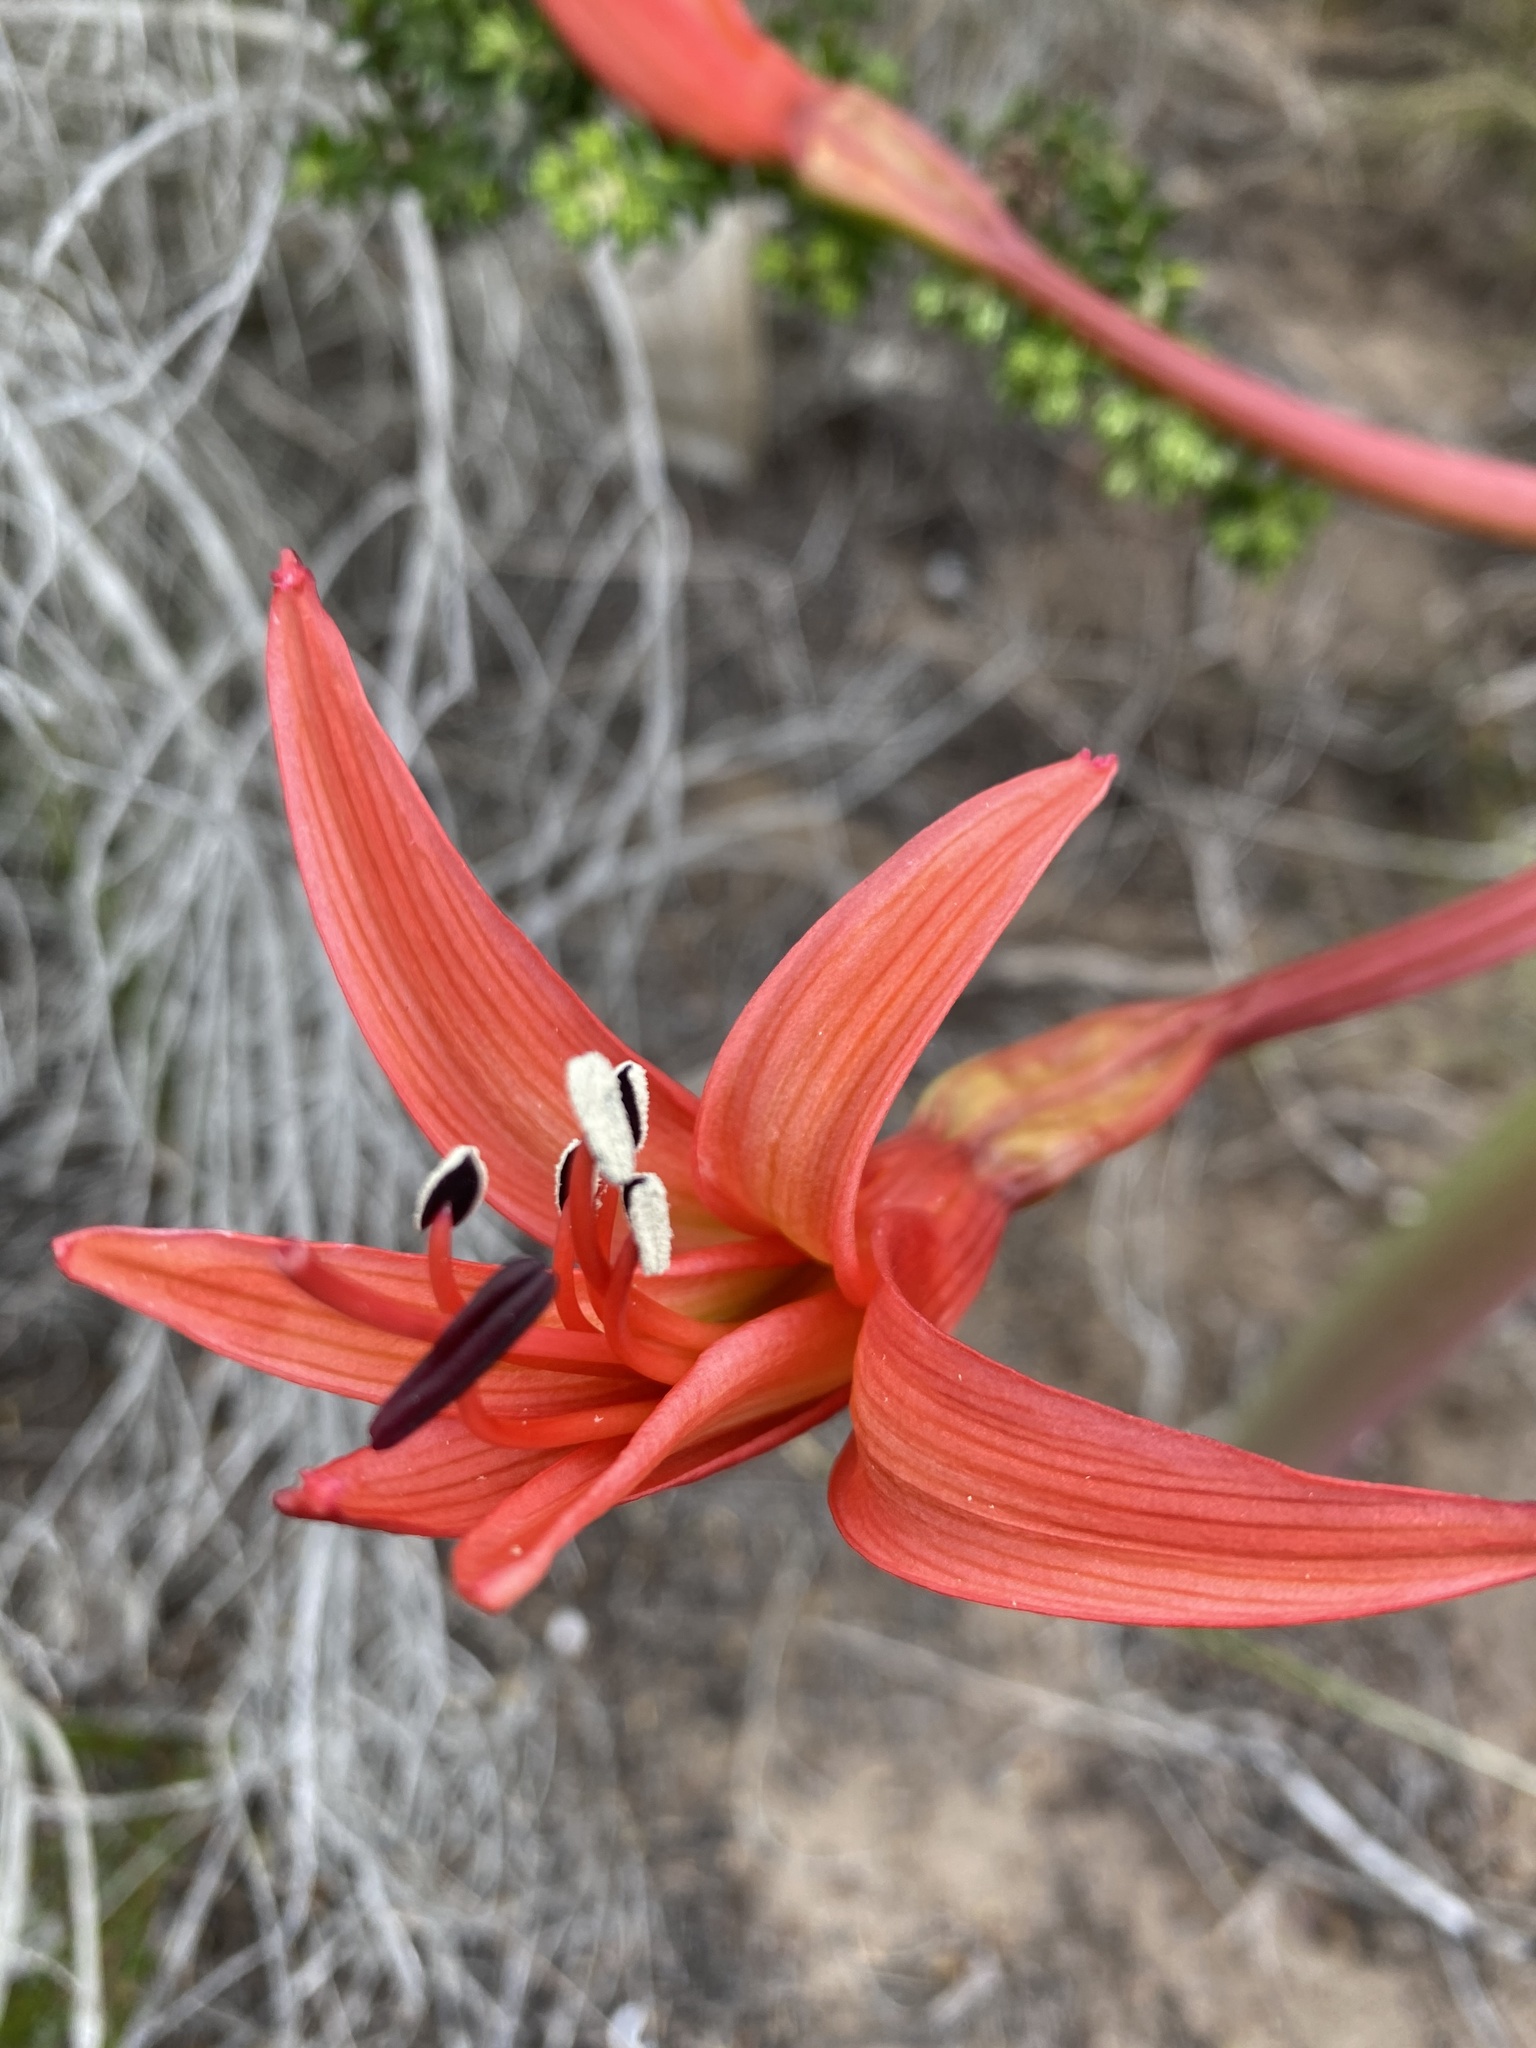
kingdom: Plantae
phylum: Tracheophyta
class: Liliopsida
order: Asparagales
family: Amaryllidaceae
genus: Brunsvigia
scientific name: Brunsvigia orientalis
